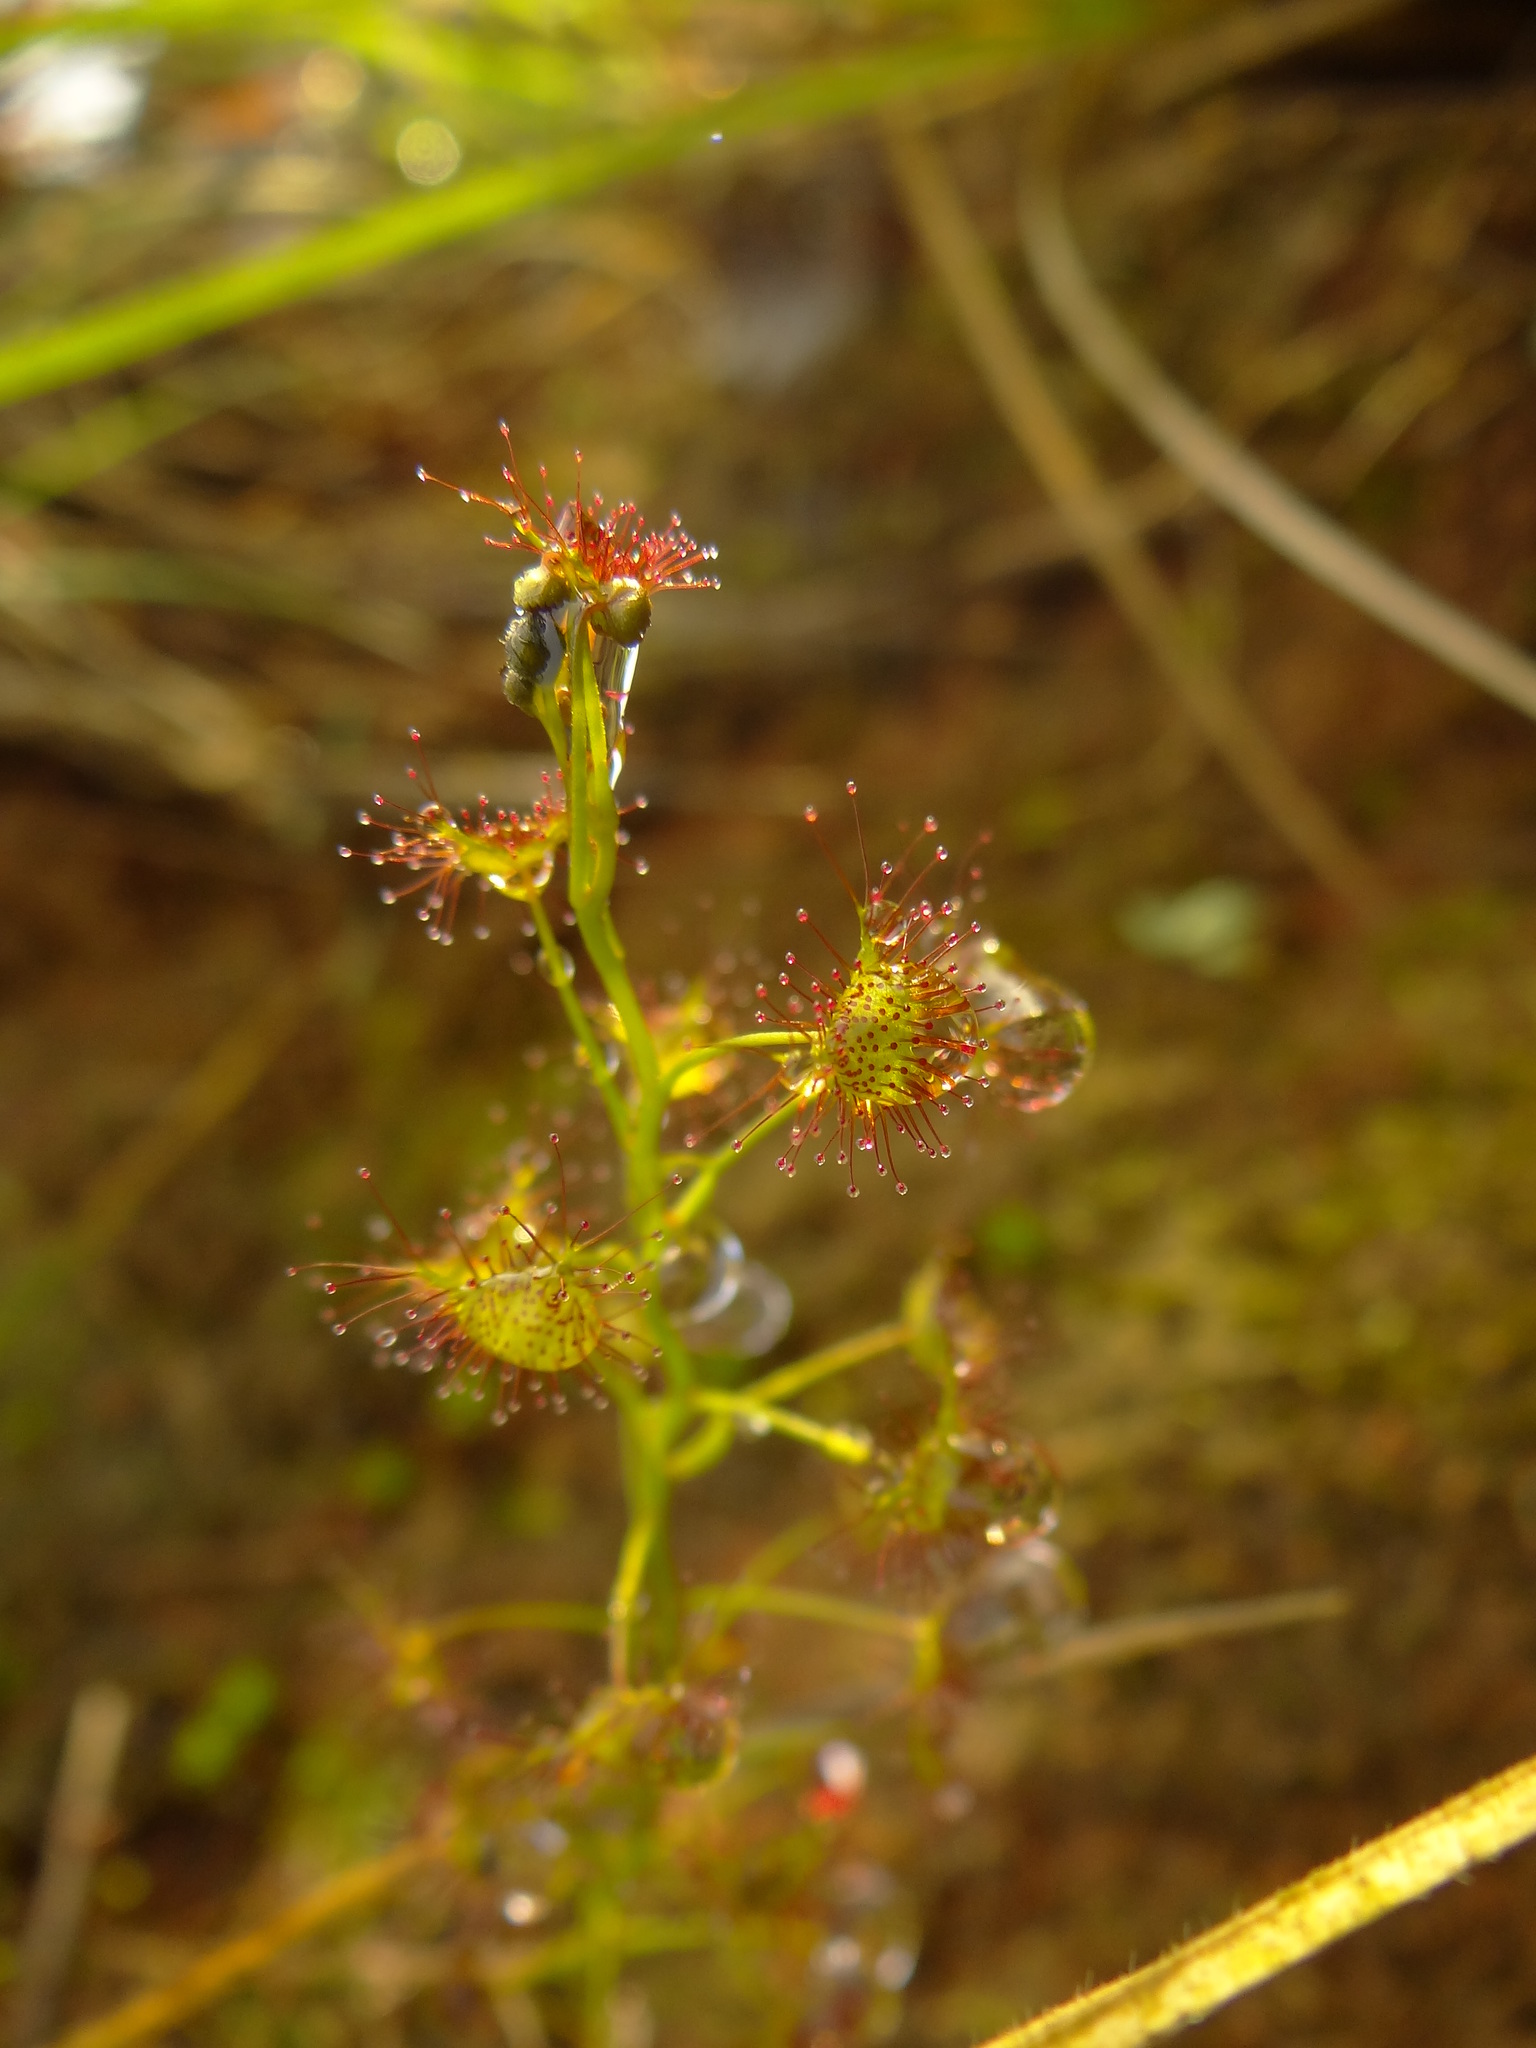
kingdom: Plantae
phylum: Tracheophyta
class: Magnoliopsida
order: Caryophyllales
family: Droseraceae
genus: Drosera
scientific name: Drosera peltata
